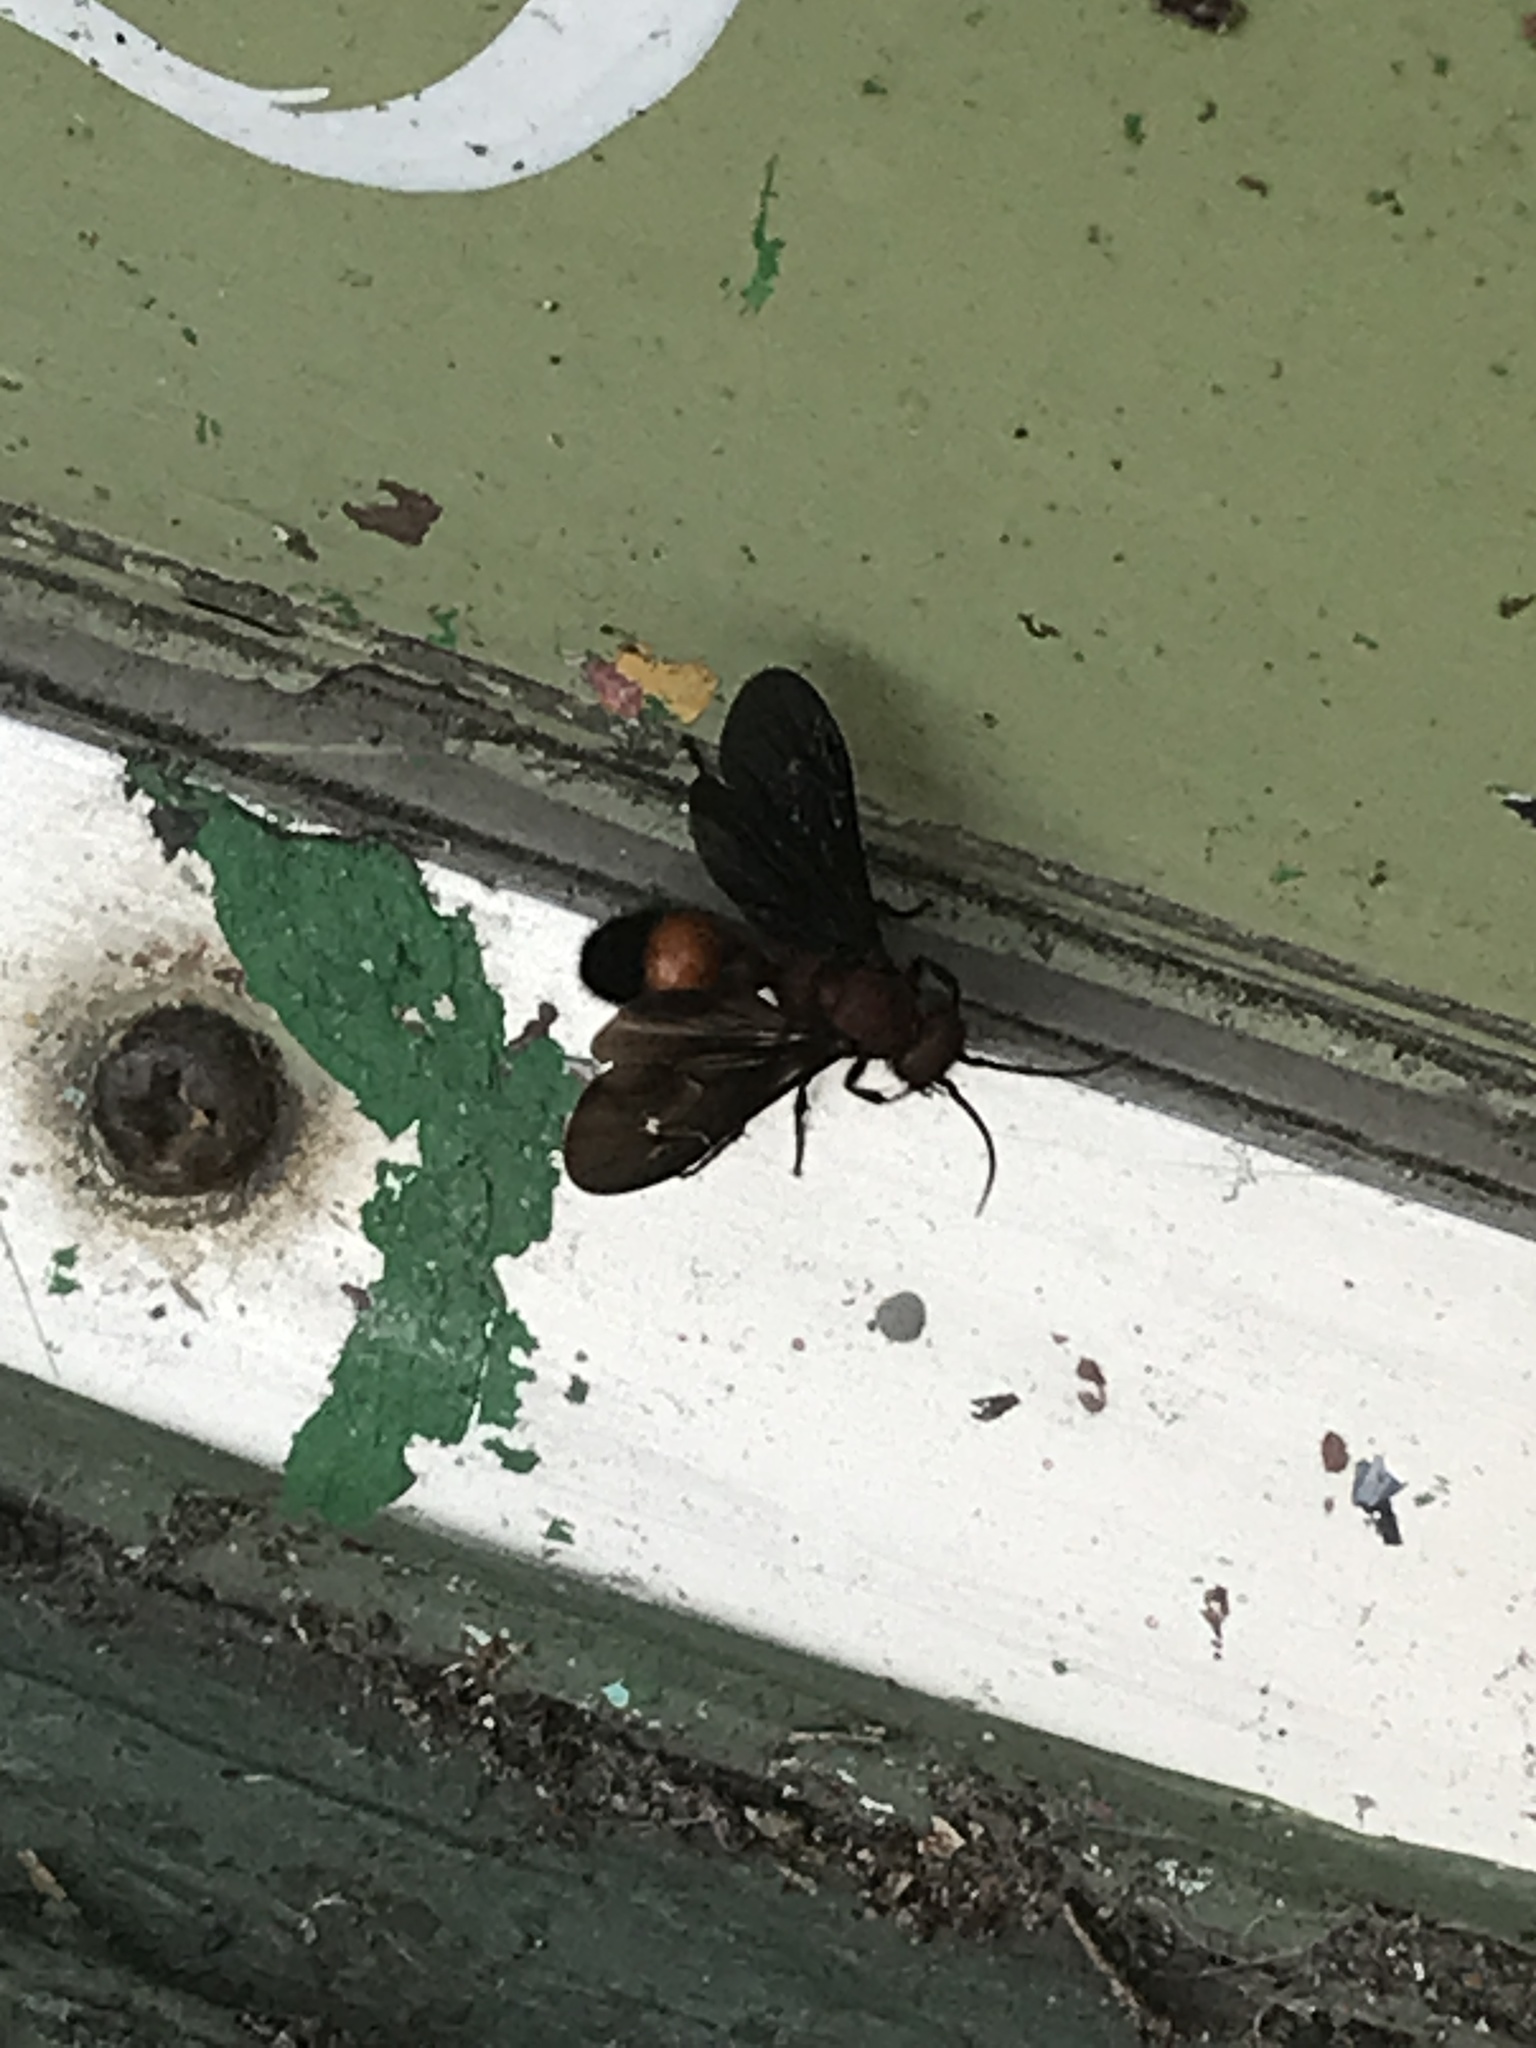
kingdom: Animalia
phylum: Arthropoda
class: Insecta
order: Hymenoptera
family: Mutillidae
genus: Sphaeropthalma
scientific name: Sphaeropthalma
